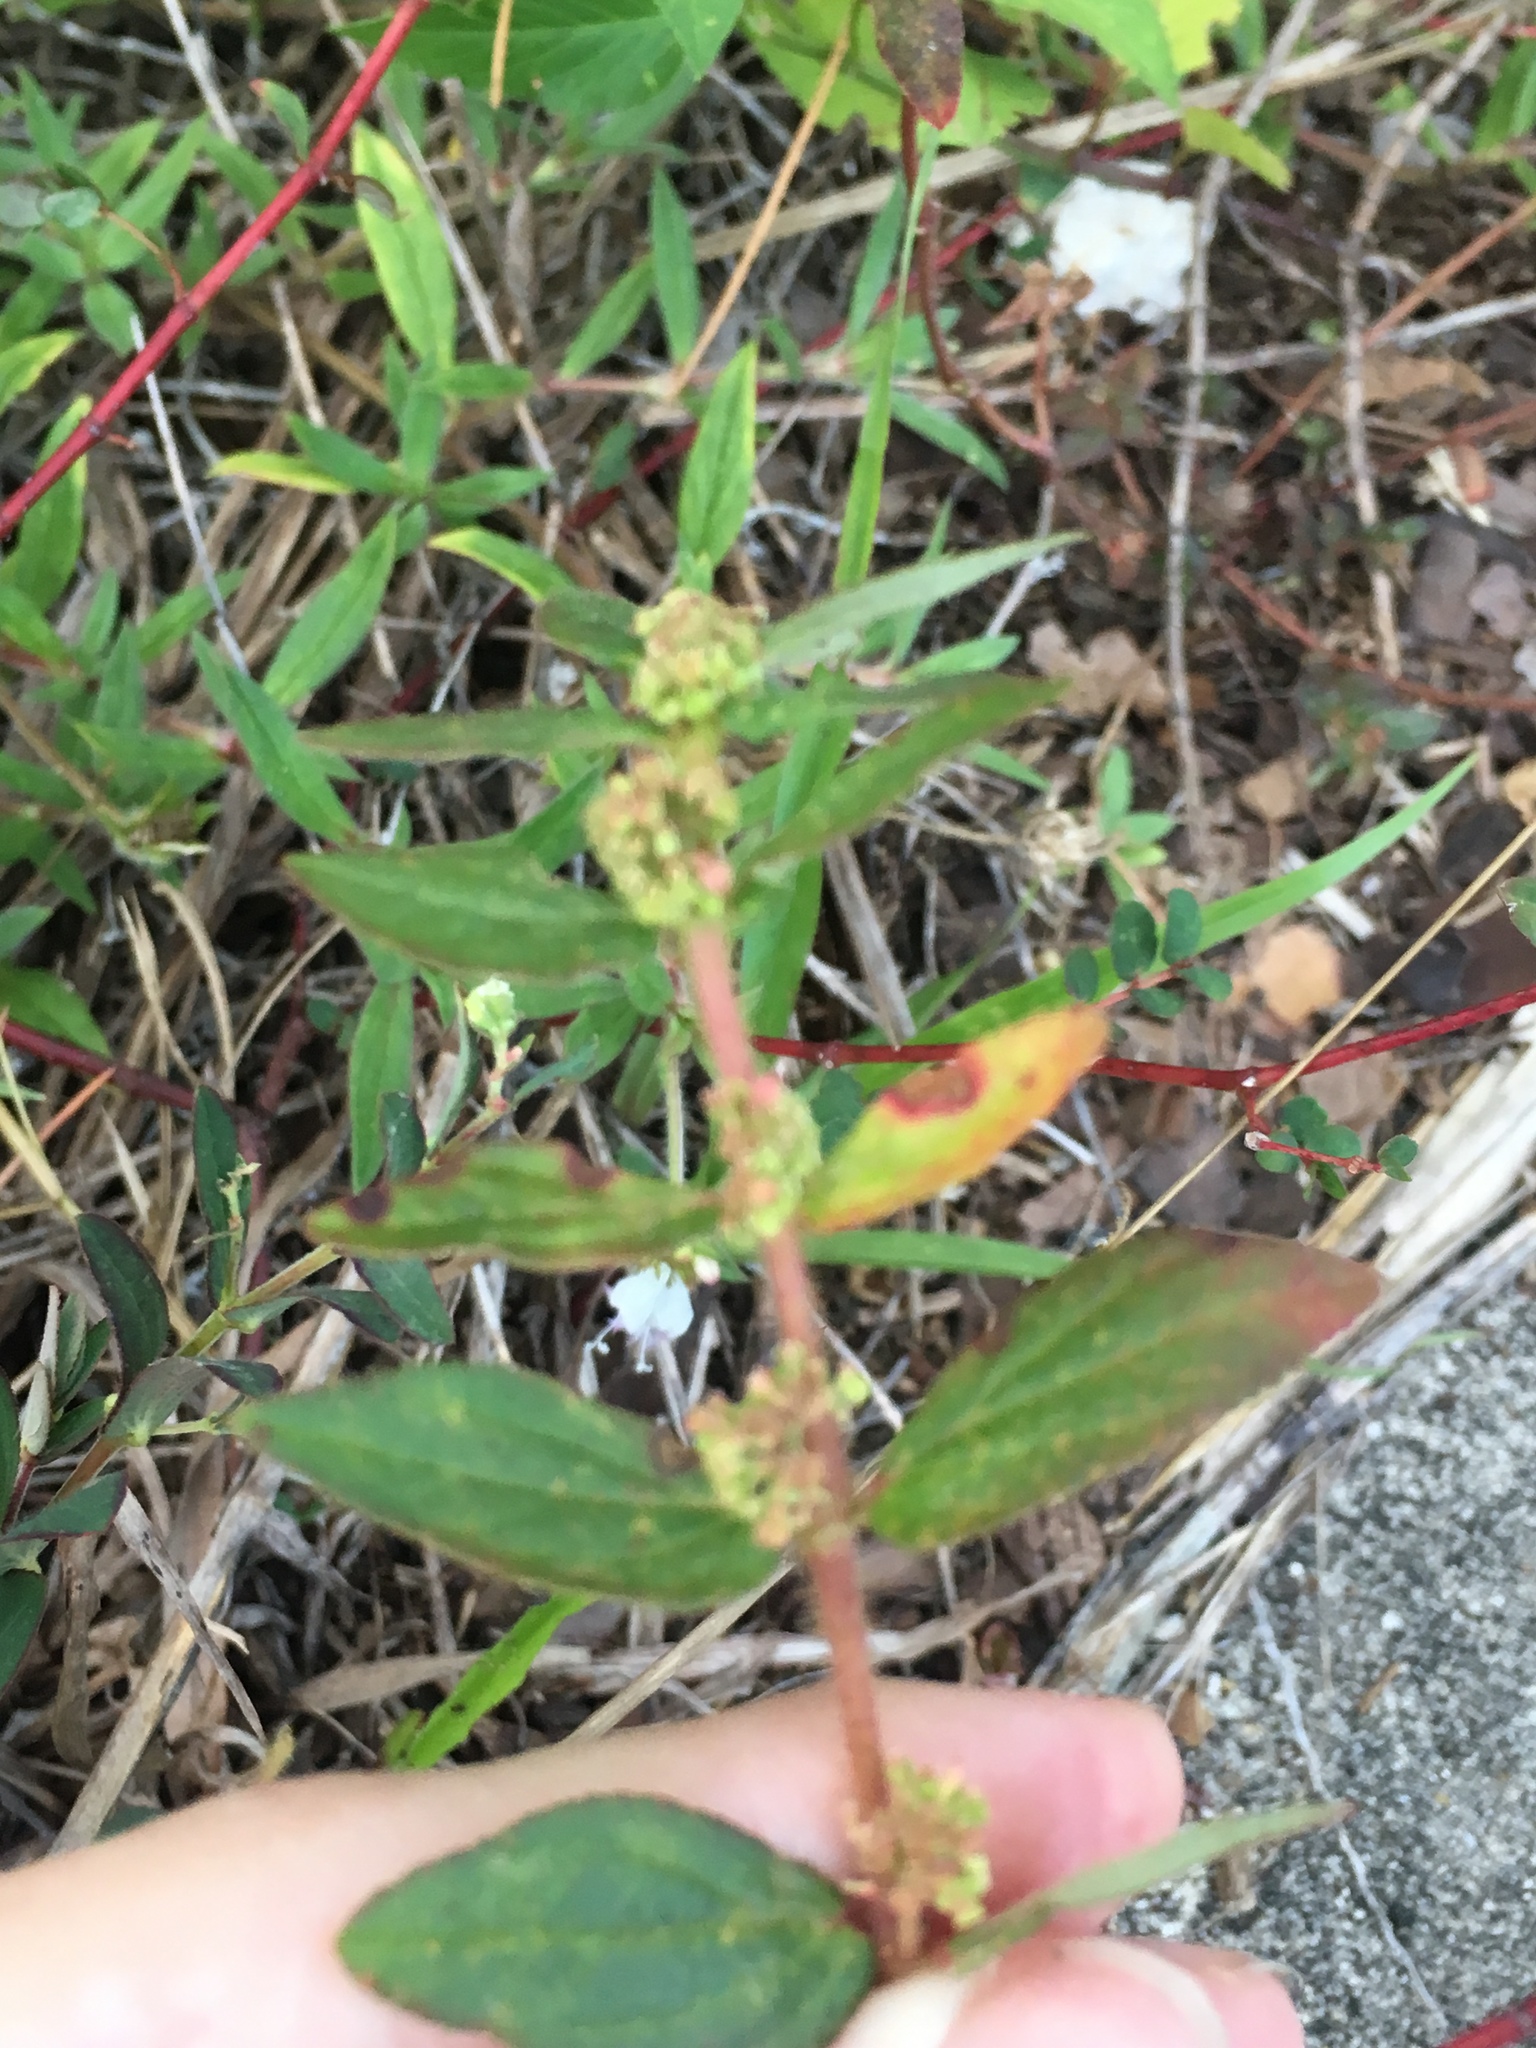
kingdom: Plantae
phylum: Tracheophyta
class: Magnoliopsida
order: Malpighiales
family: Euphorbiaceae
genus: Euphorbia
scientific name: Euphorbia hirta
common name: Pillpod sandmat
